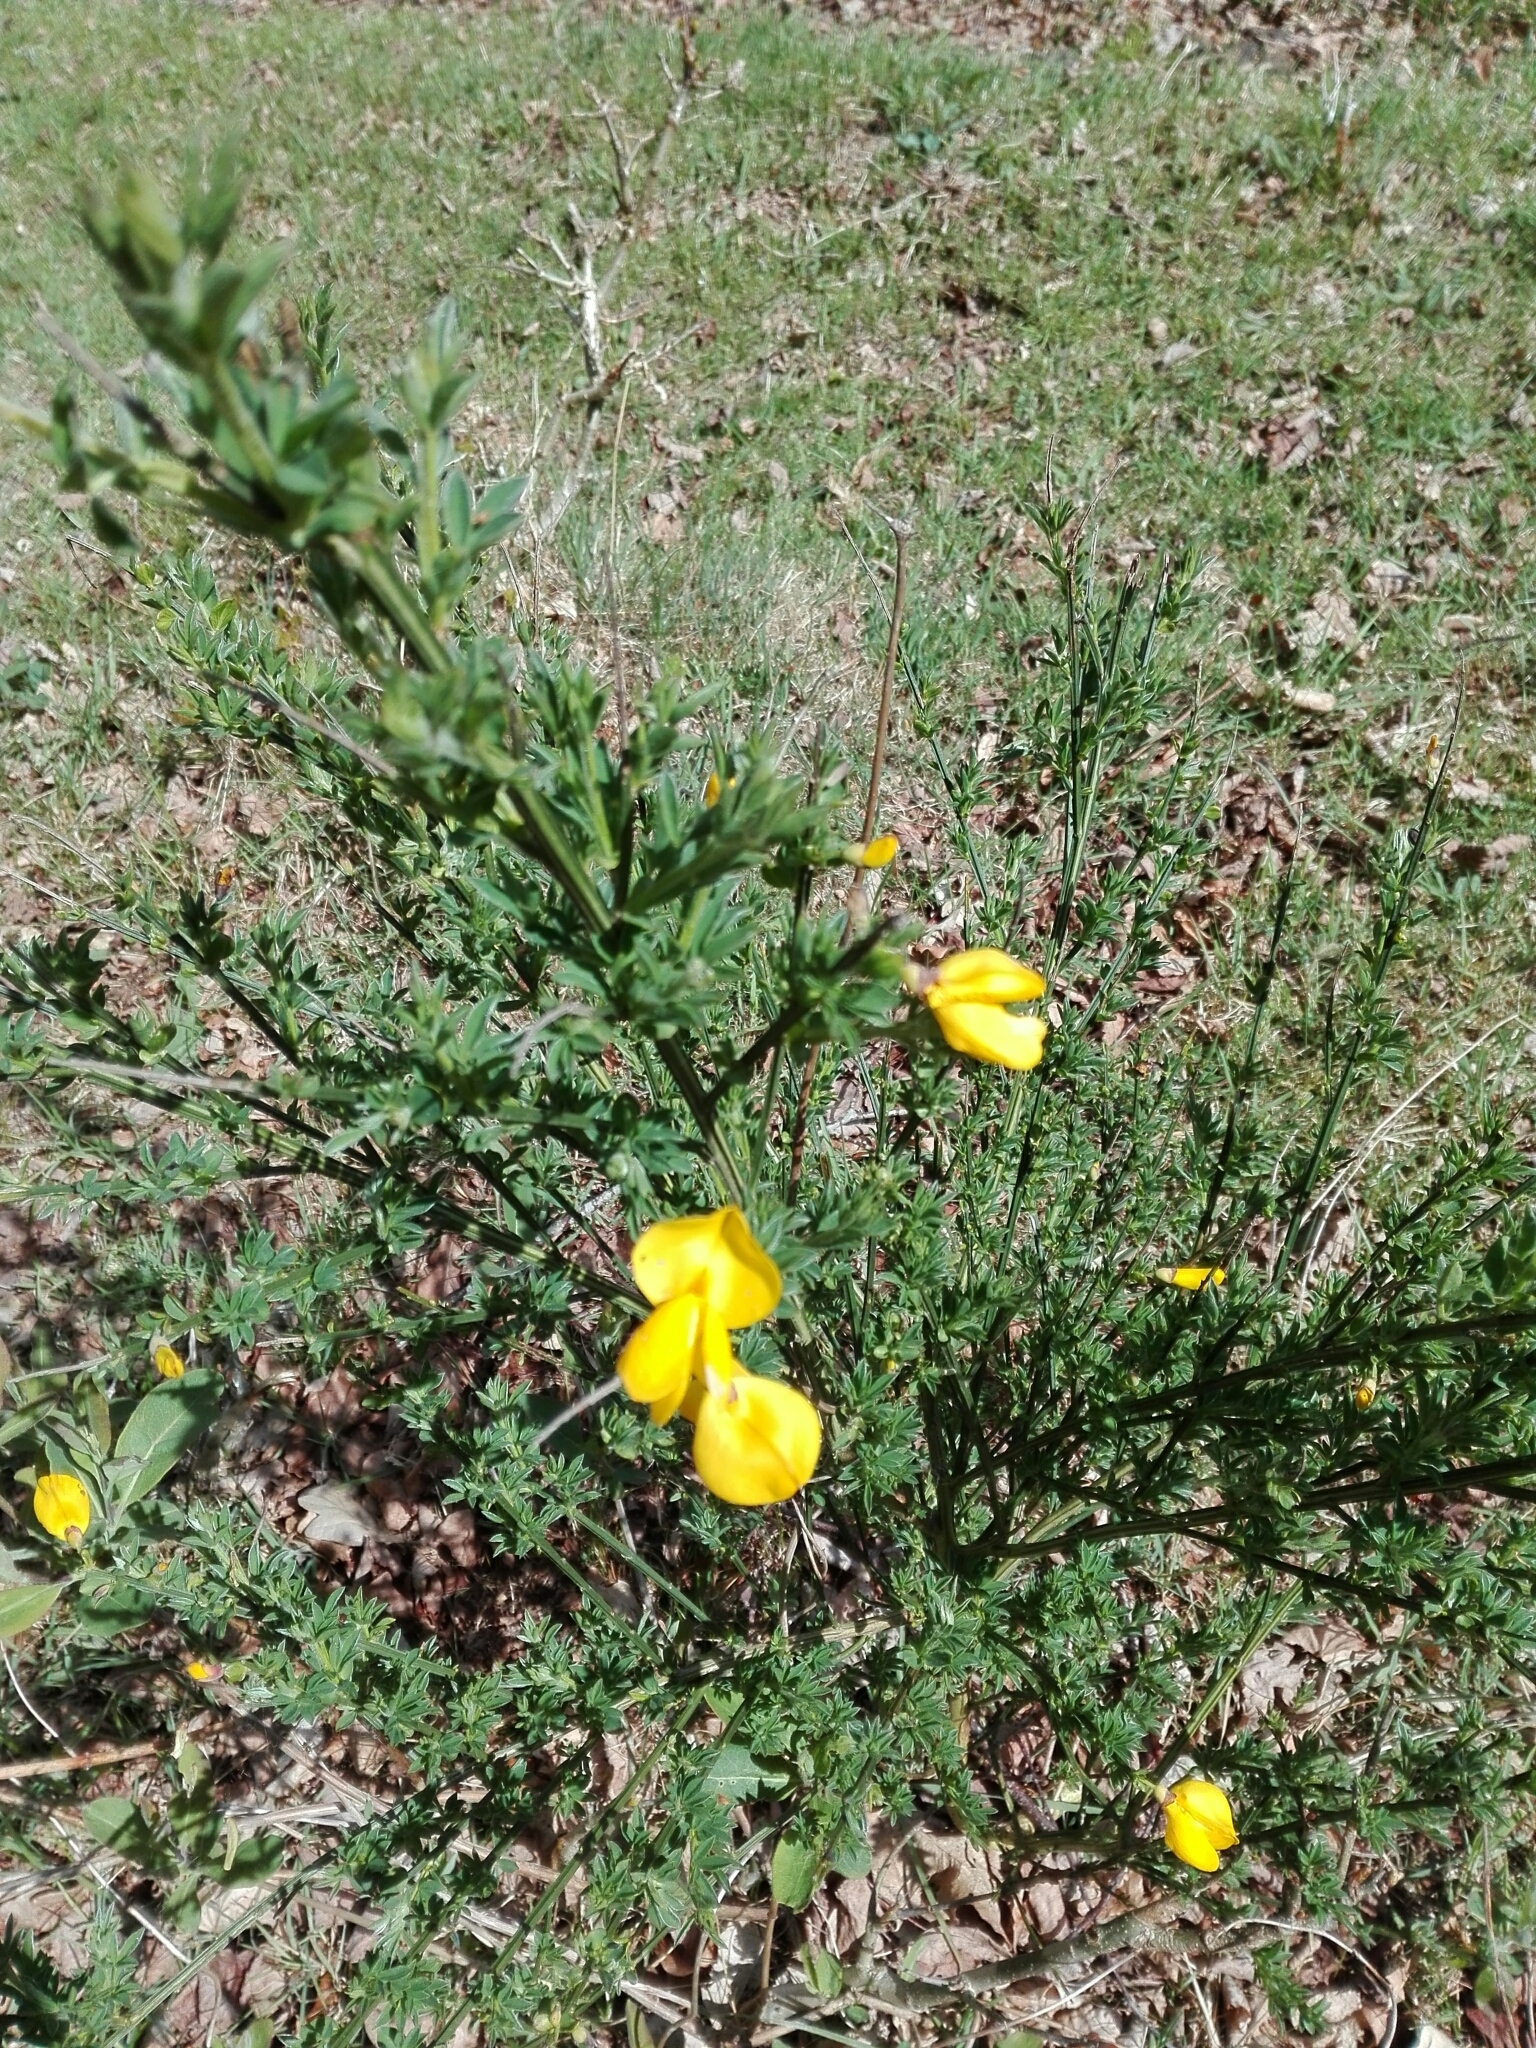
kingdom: Plantae
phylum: Tracheophyta
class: Magnoliopsida
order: Fabales
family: Fabaceae
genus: Cytisus
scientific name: Cytisus scoparius
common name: Scotch broom
